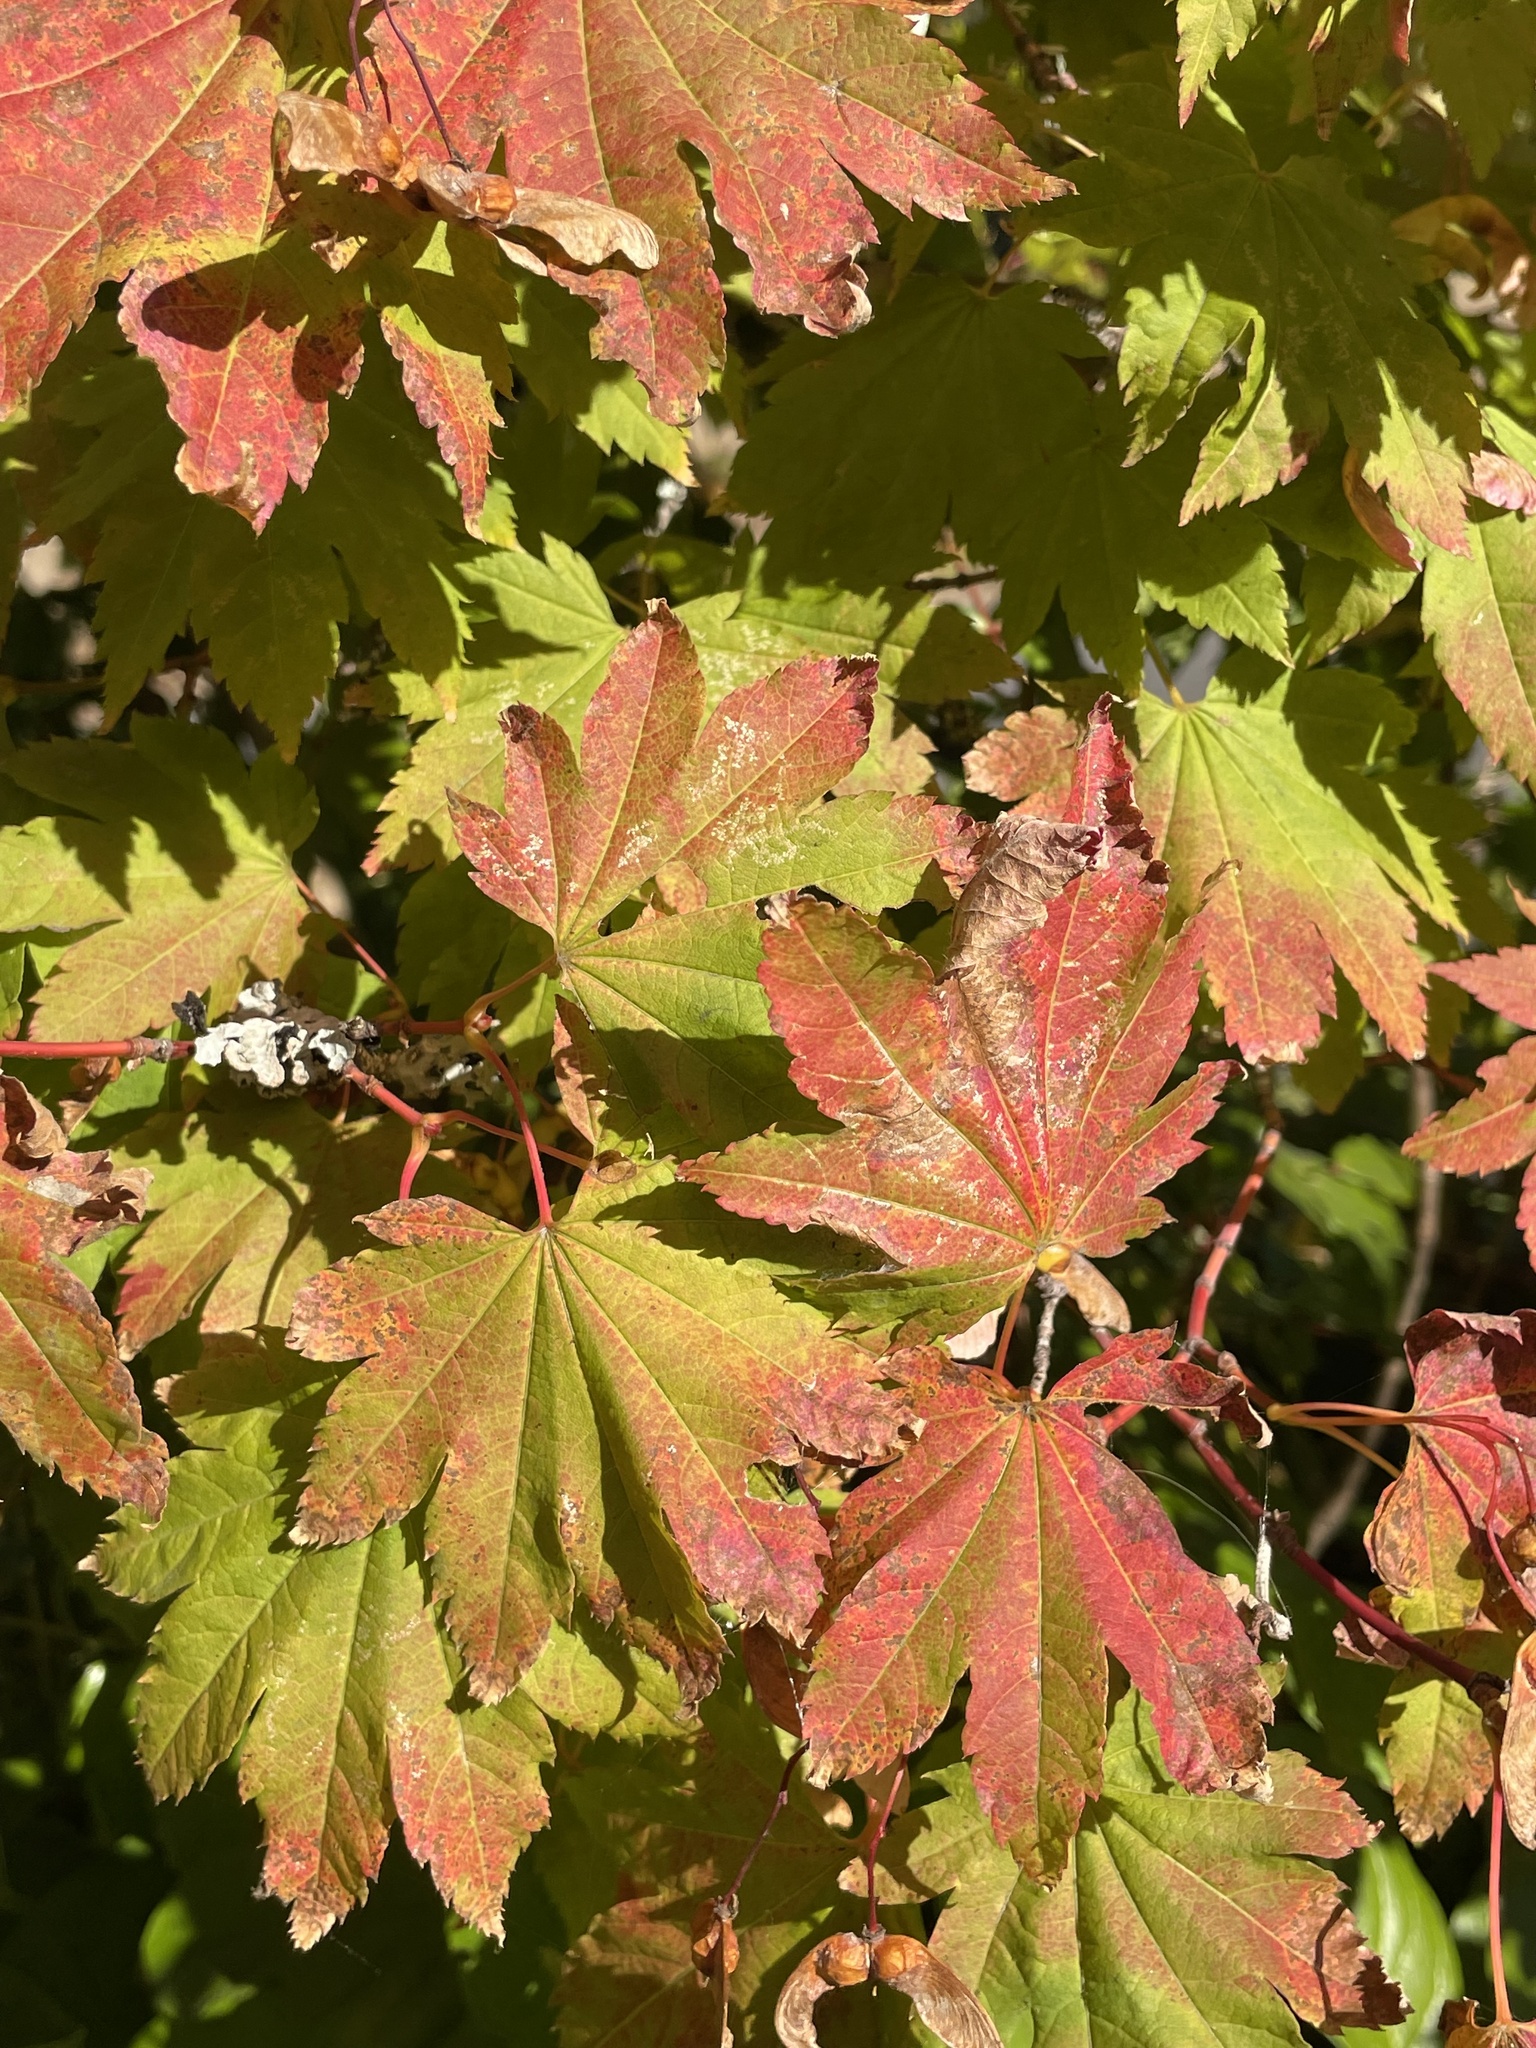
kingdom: Plantae
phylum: Tracheophyta
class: Magnoliopsida
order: Sapindales
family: Sapindaceae
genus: Acer
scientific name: Acer circinatum
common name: Vine maple
